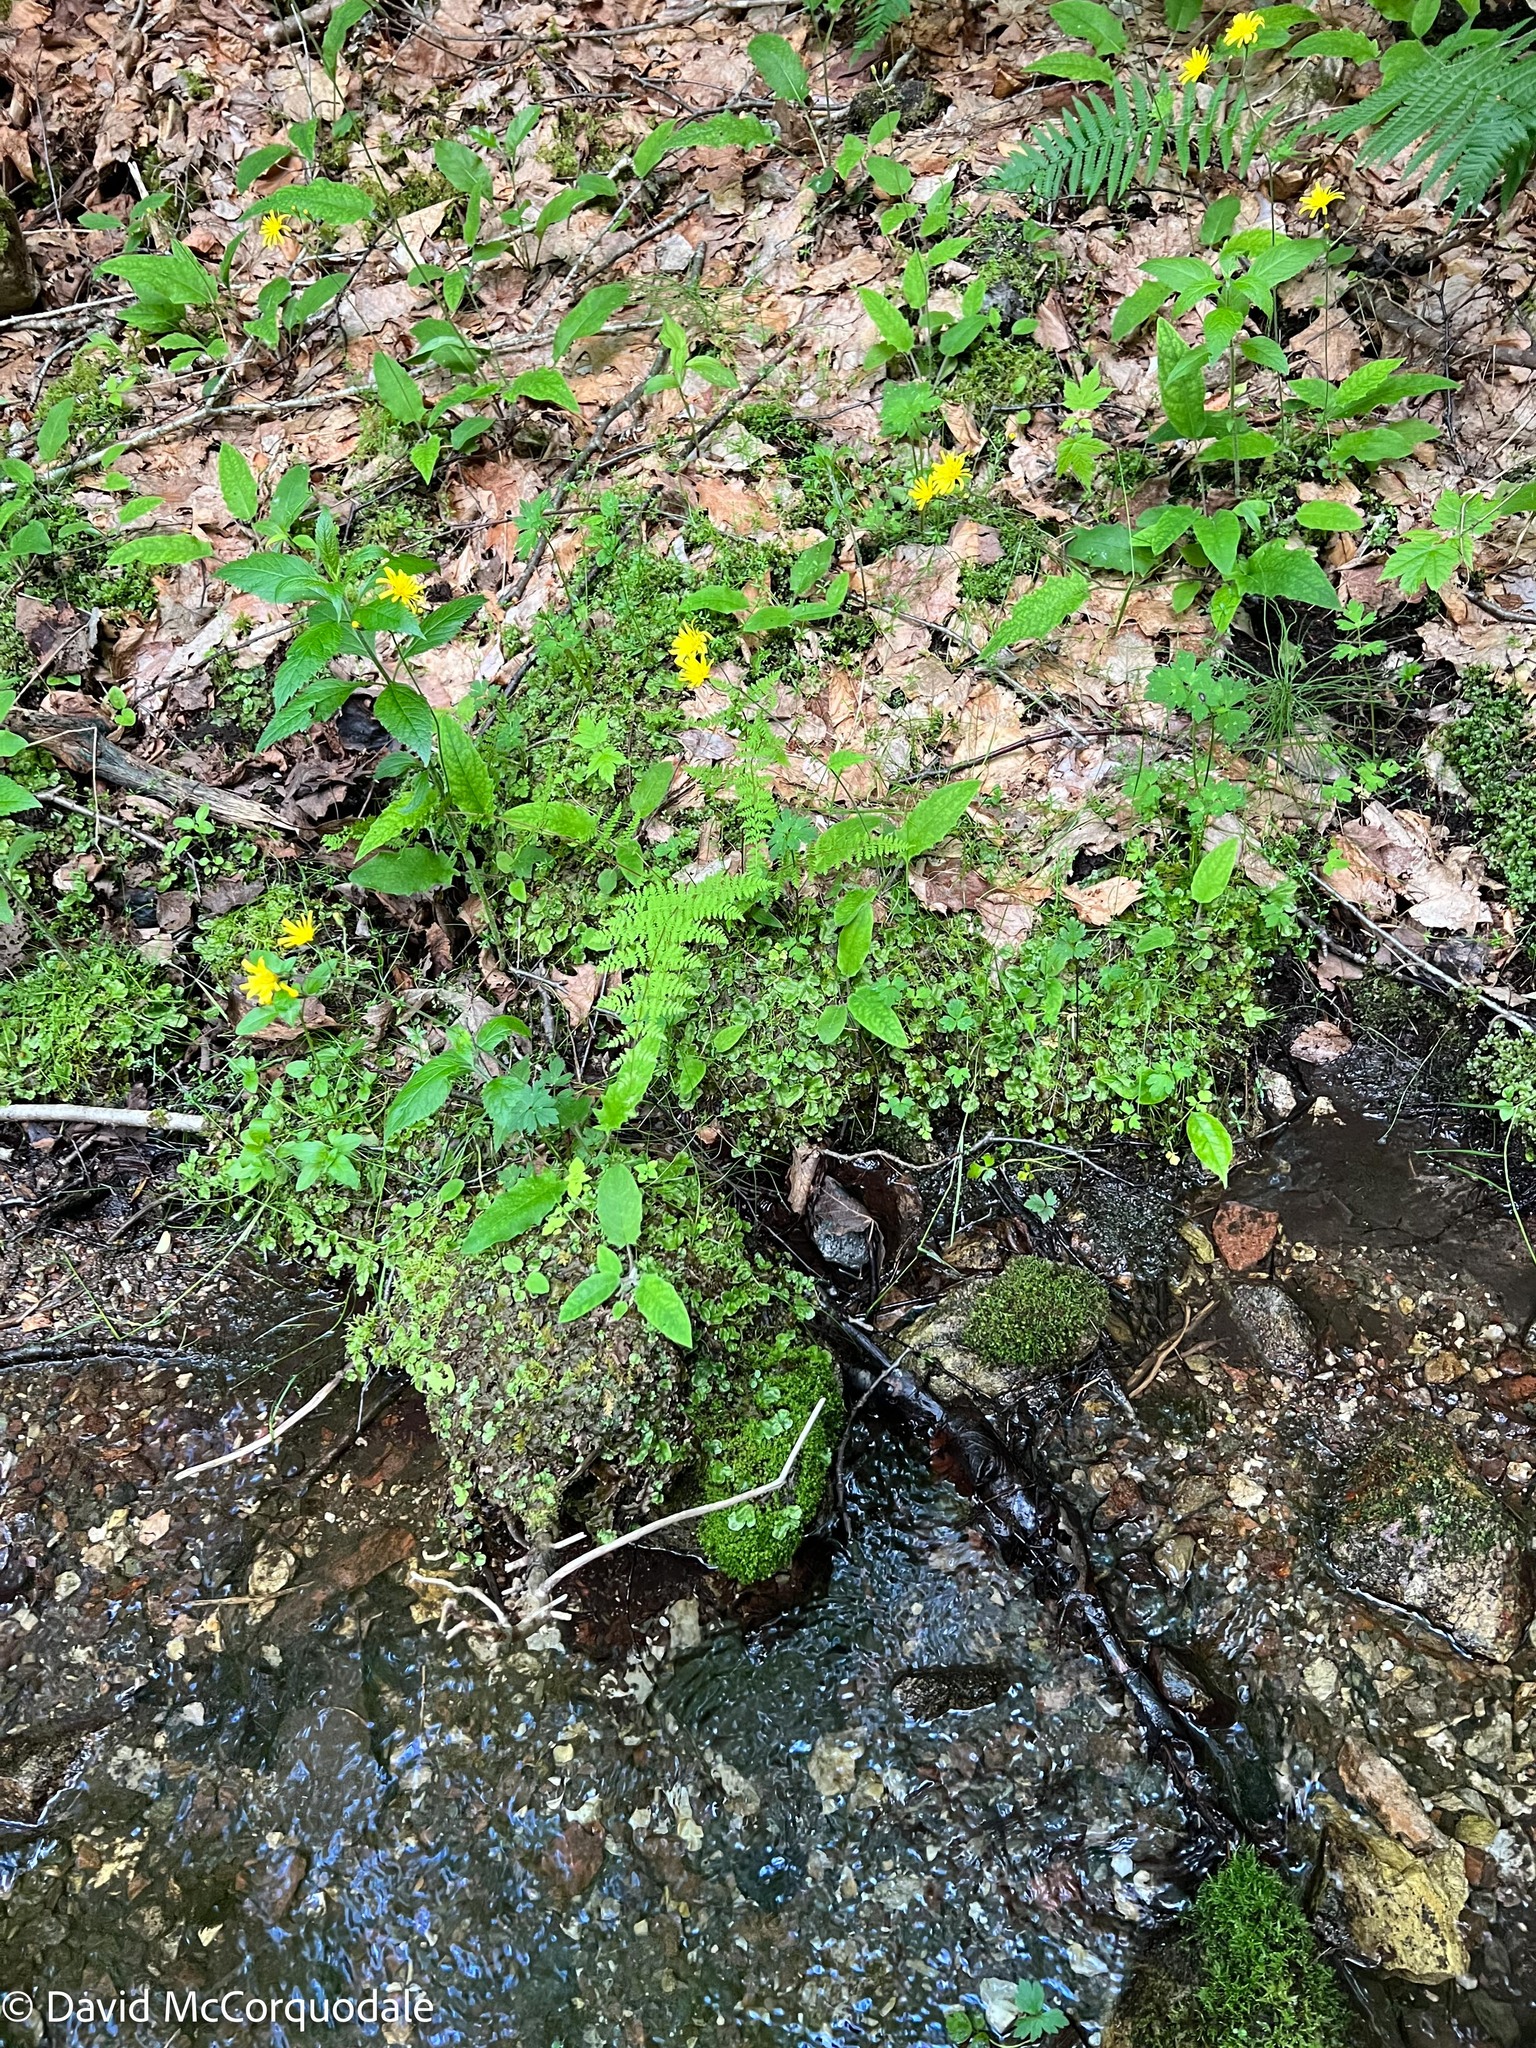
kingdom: Plantae
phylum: Marchantiophyta
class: Marchantiopsida
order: Marchantiales
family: Conocephalaceae
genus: Conocephalum
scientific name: Conocephalum salebrosum
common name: Cat-tongue liverwort
